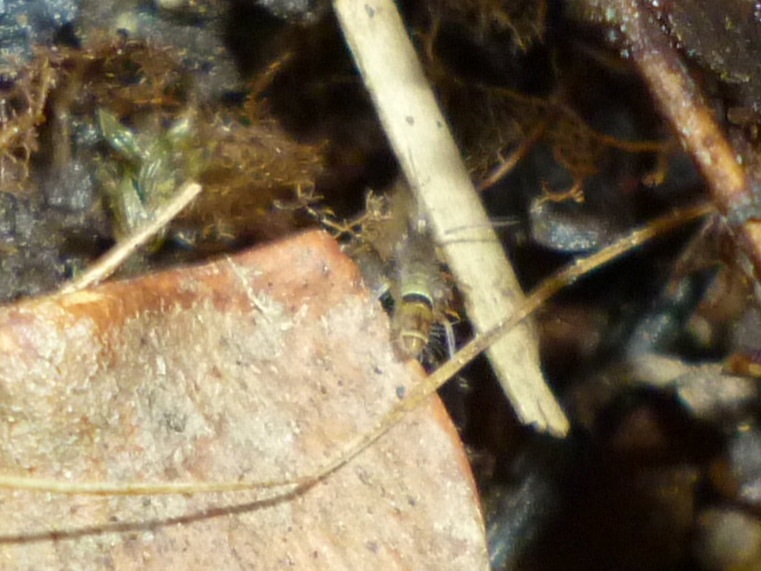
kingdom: Animalia
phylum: Arthropoda
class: Collembola
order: Entomobryomorpha
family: Orchesellidae
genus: Orchesella
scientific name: Orchesella cincta
